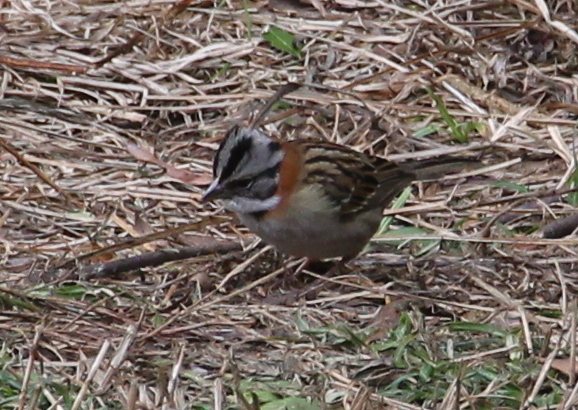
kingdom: Animalia
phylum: Chordata
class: Aves
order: Passeriformes
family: Passerellidae
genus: Zonotrichia
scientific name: Zonotrichia capensis
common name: Rufous-collared sparrow
